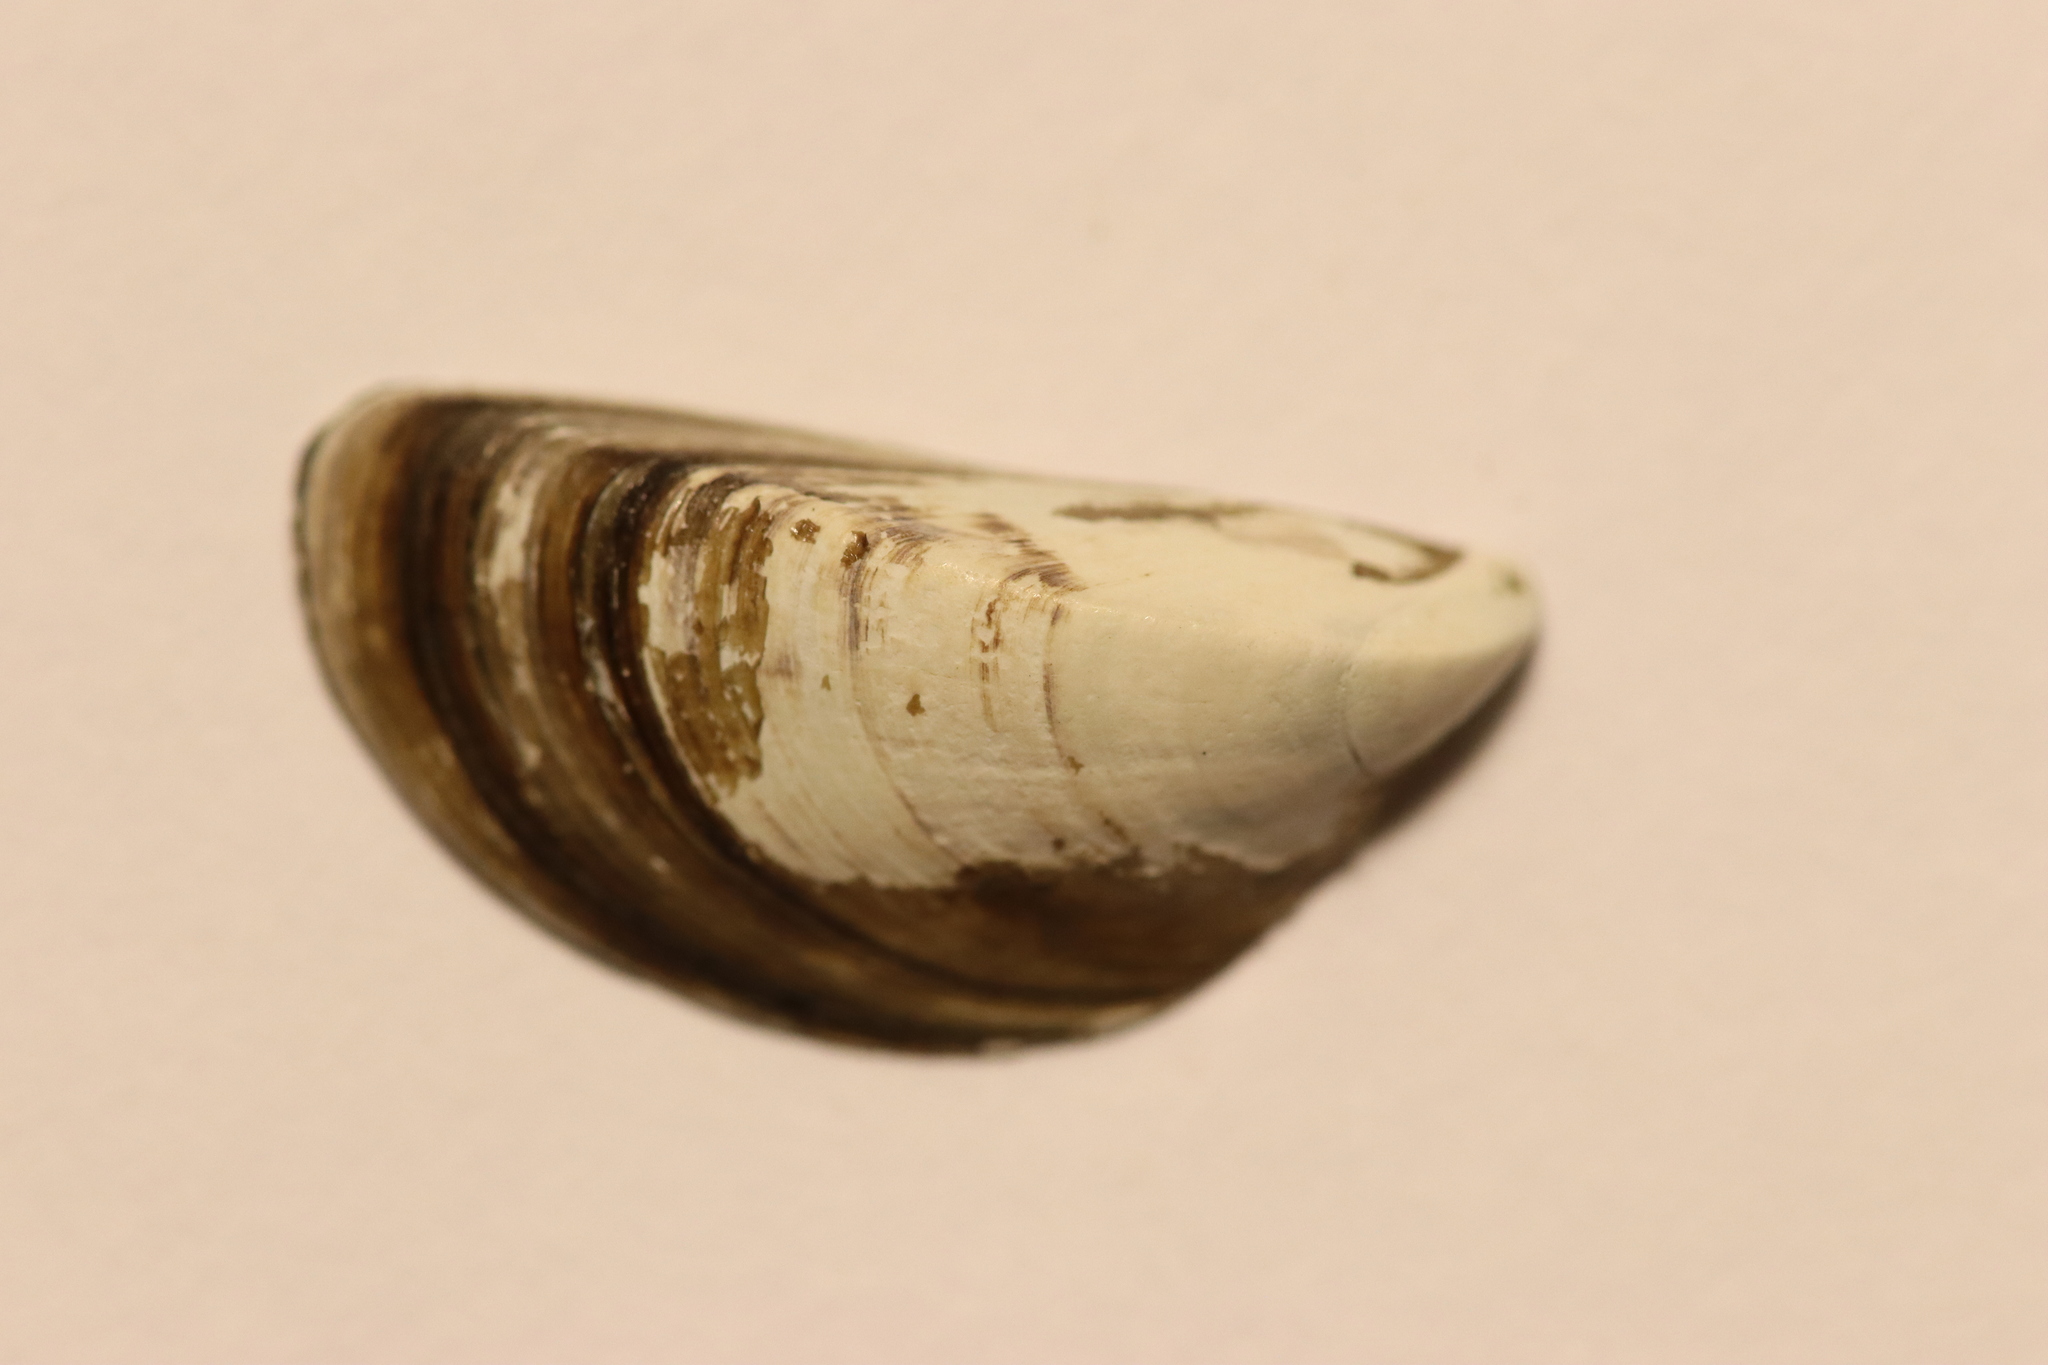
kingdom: Animalia
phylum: Mollusca
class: Bivalvia
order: Myida
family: Dreissenidae
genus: Dreissena
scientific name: Dreissena polymorpha
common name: Zebra mussel
